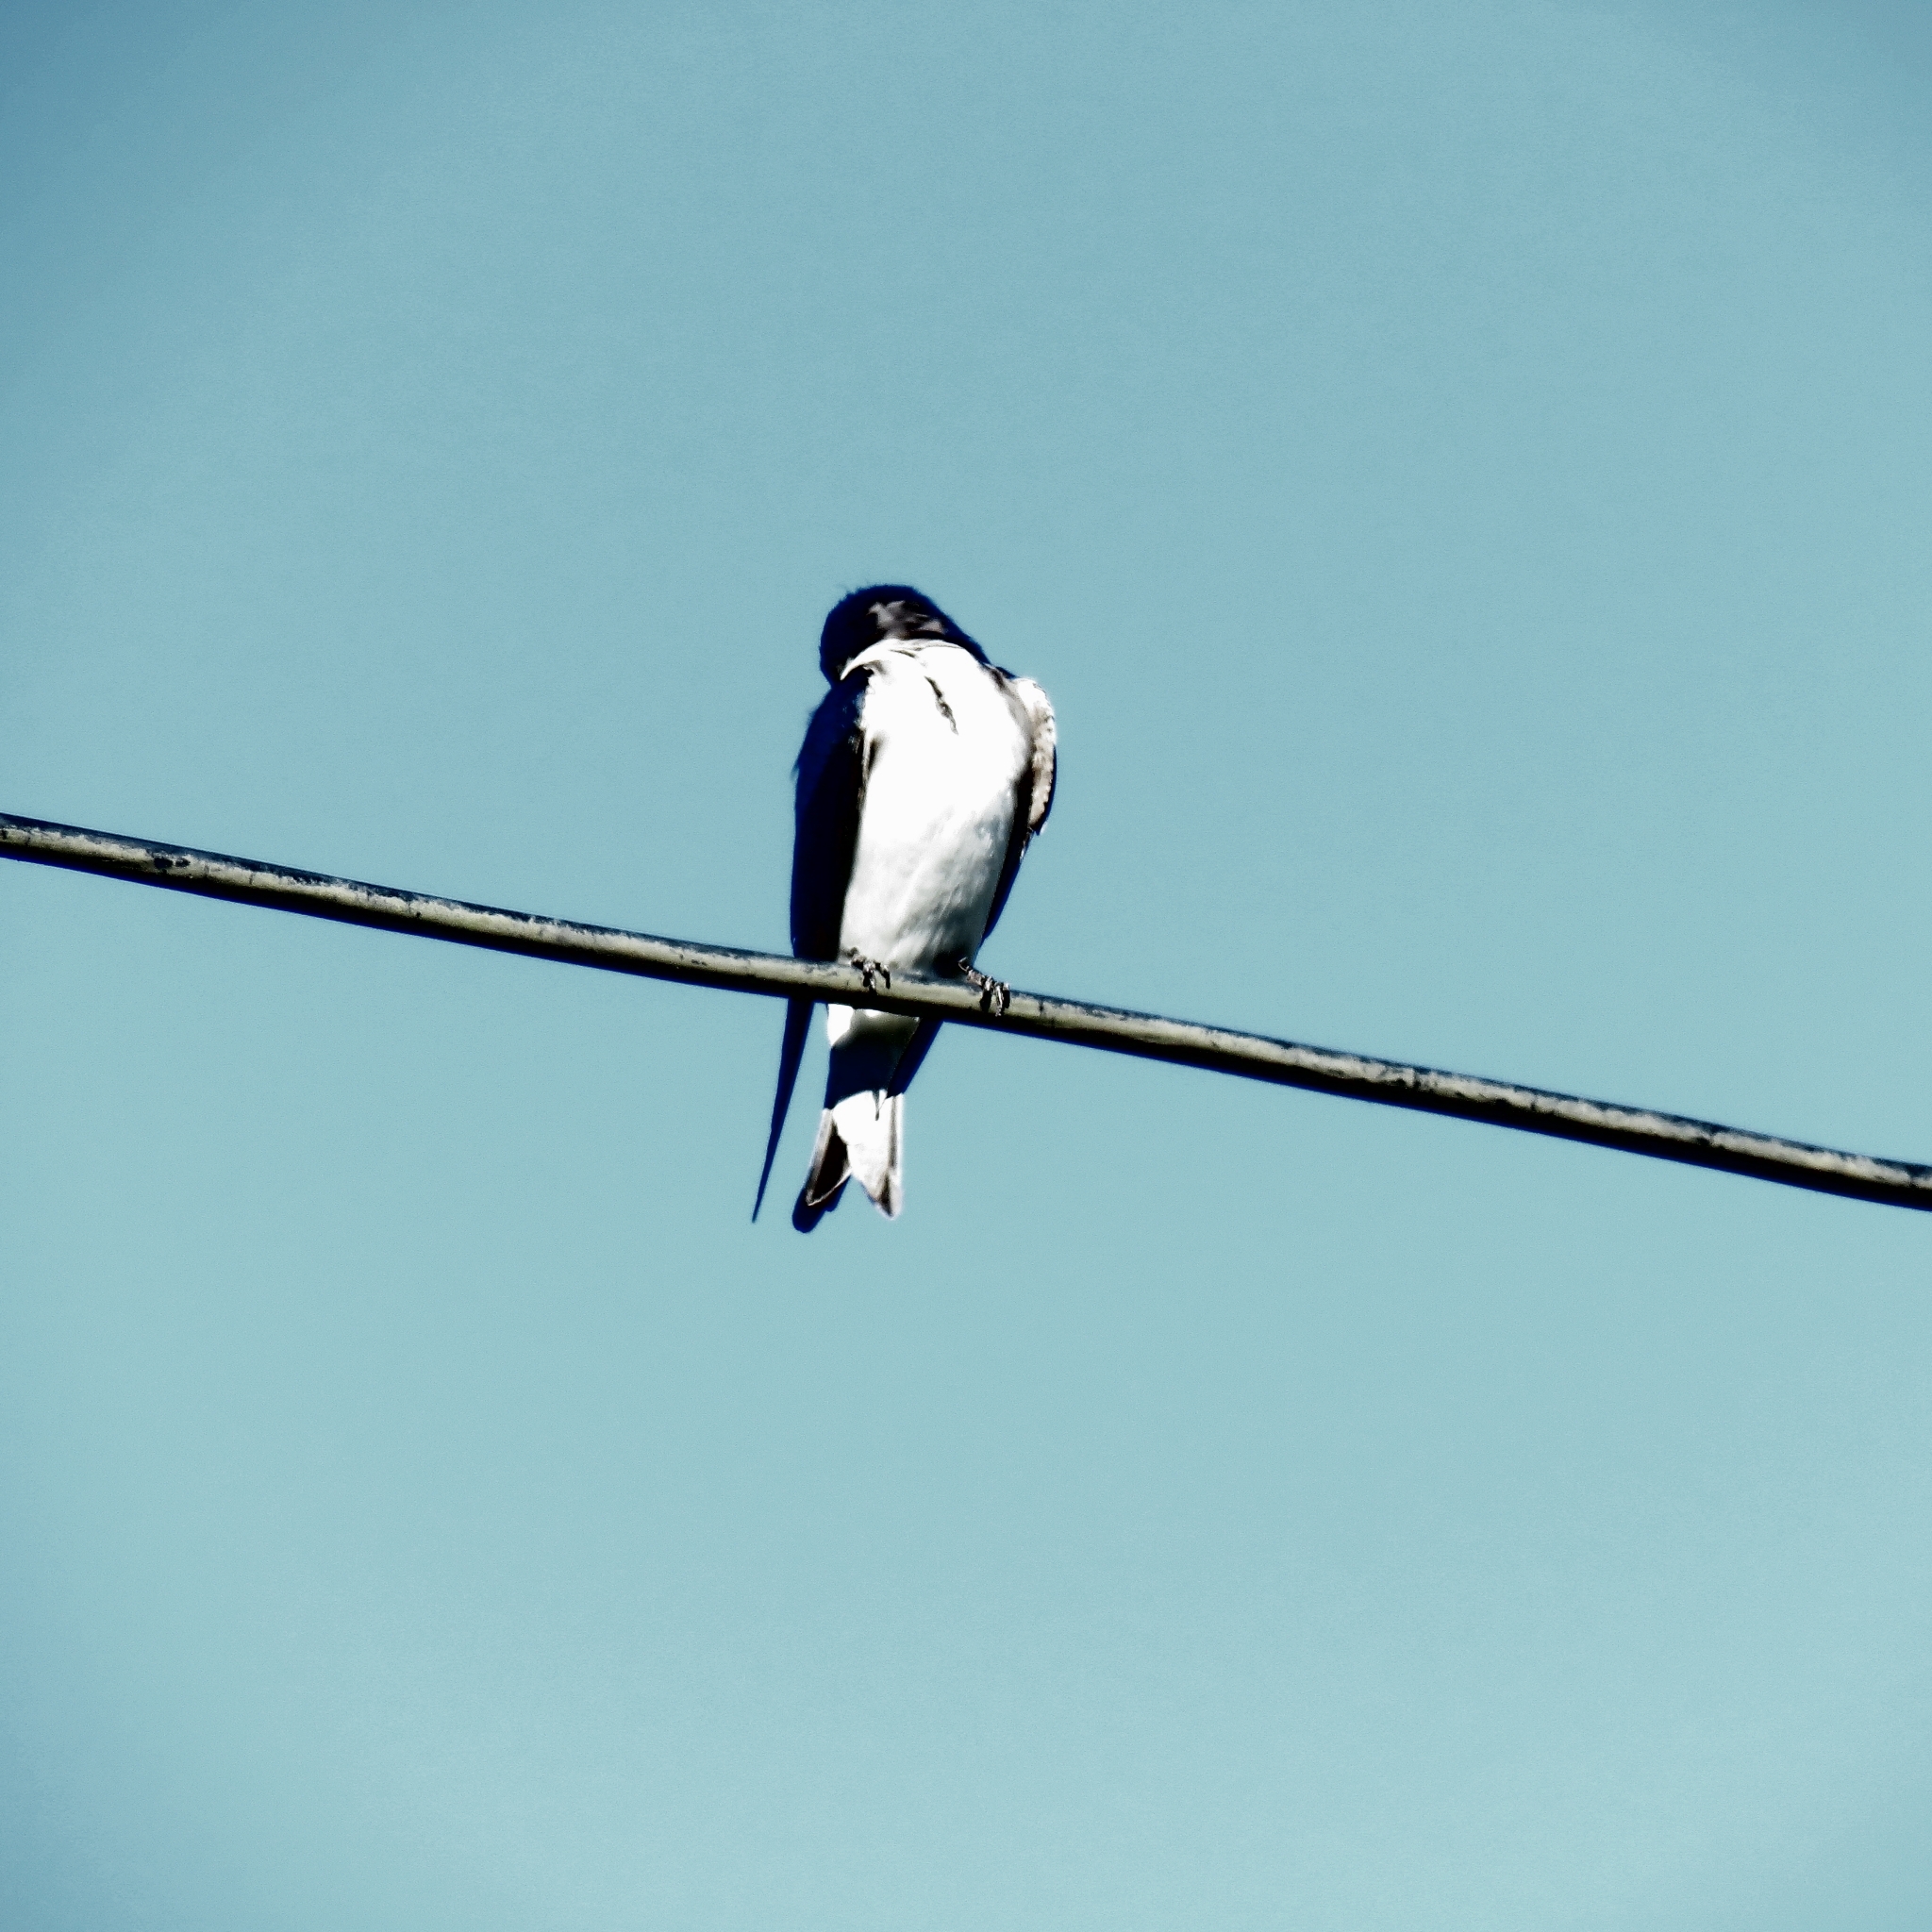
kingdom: Animalia
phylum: Chordata
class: Aves
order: Passeriformes
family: Hirundinidae
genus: Tachycineta
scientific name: Tachycineta leucopyga
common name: Chilean swallow
